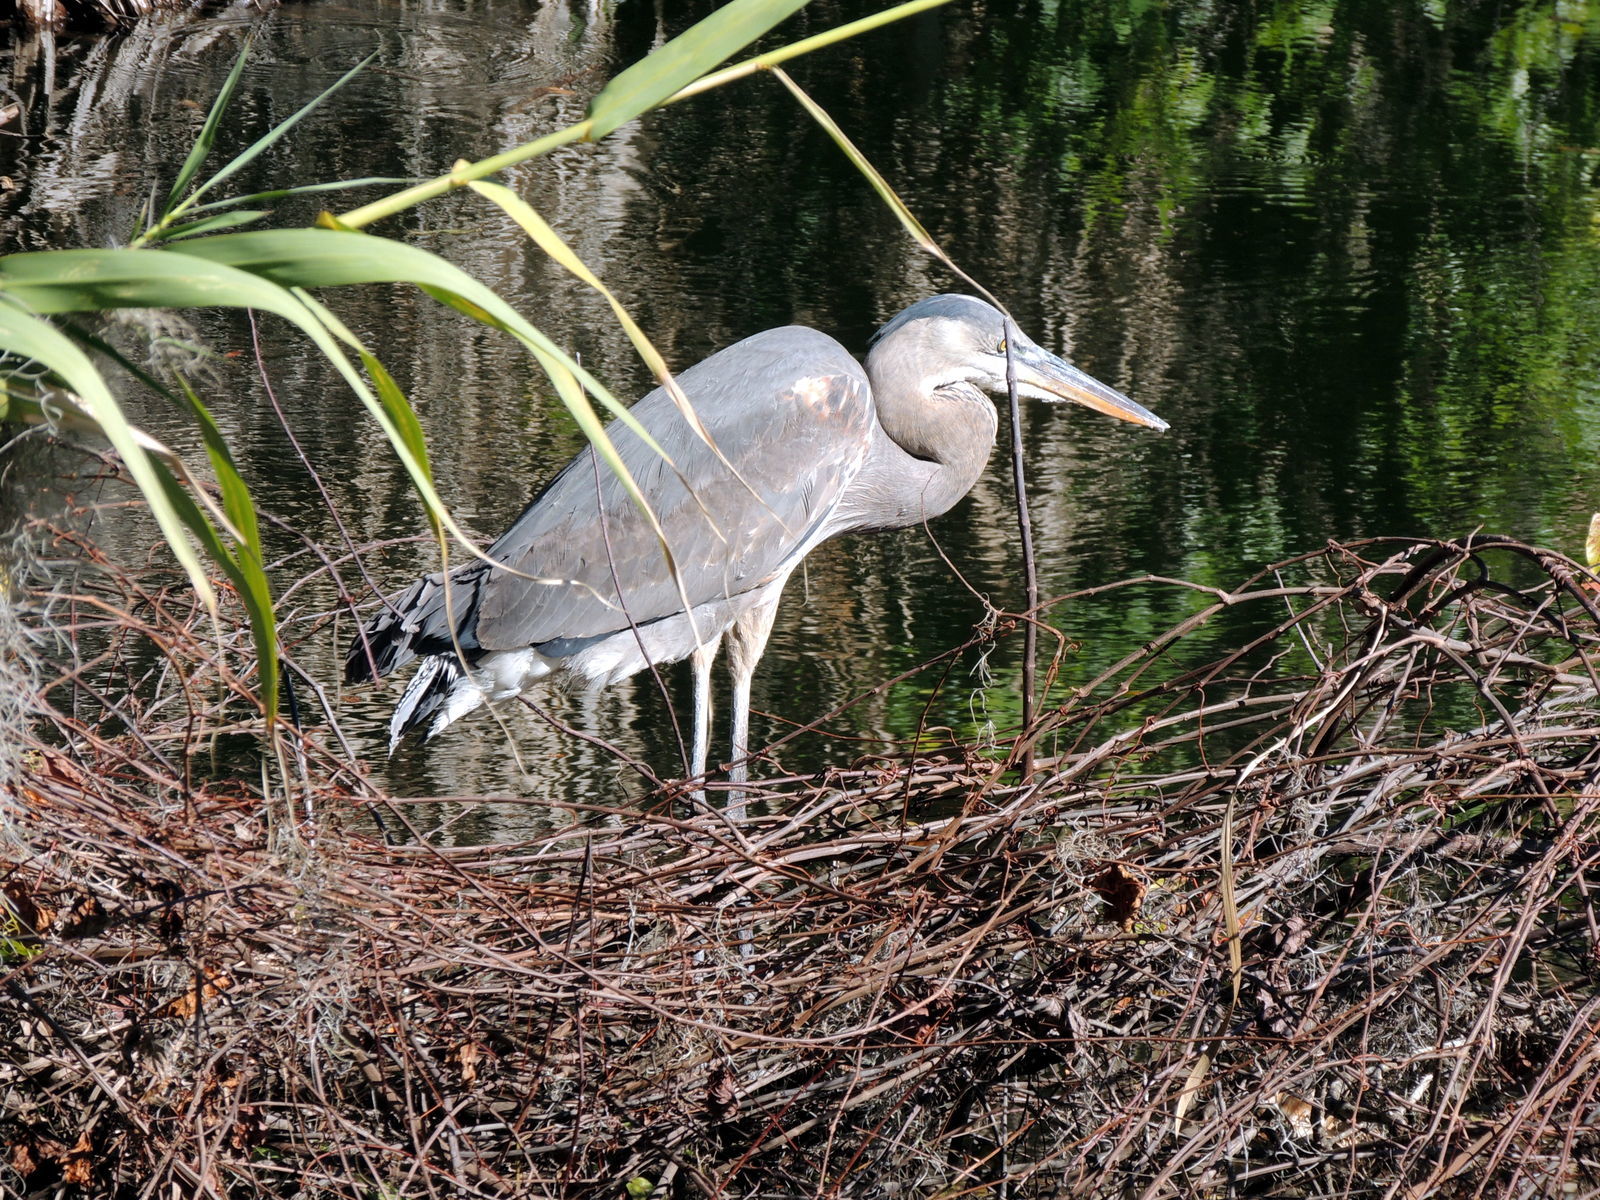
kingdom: Animalia
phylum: Chordata
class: Aves
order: Pelecaniformes
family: Ardeidae
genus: Ardea
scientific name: Ardea herodias
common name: Great blue heron
